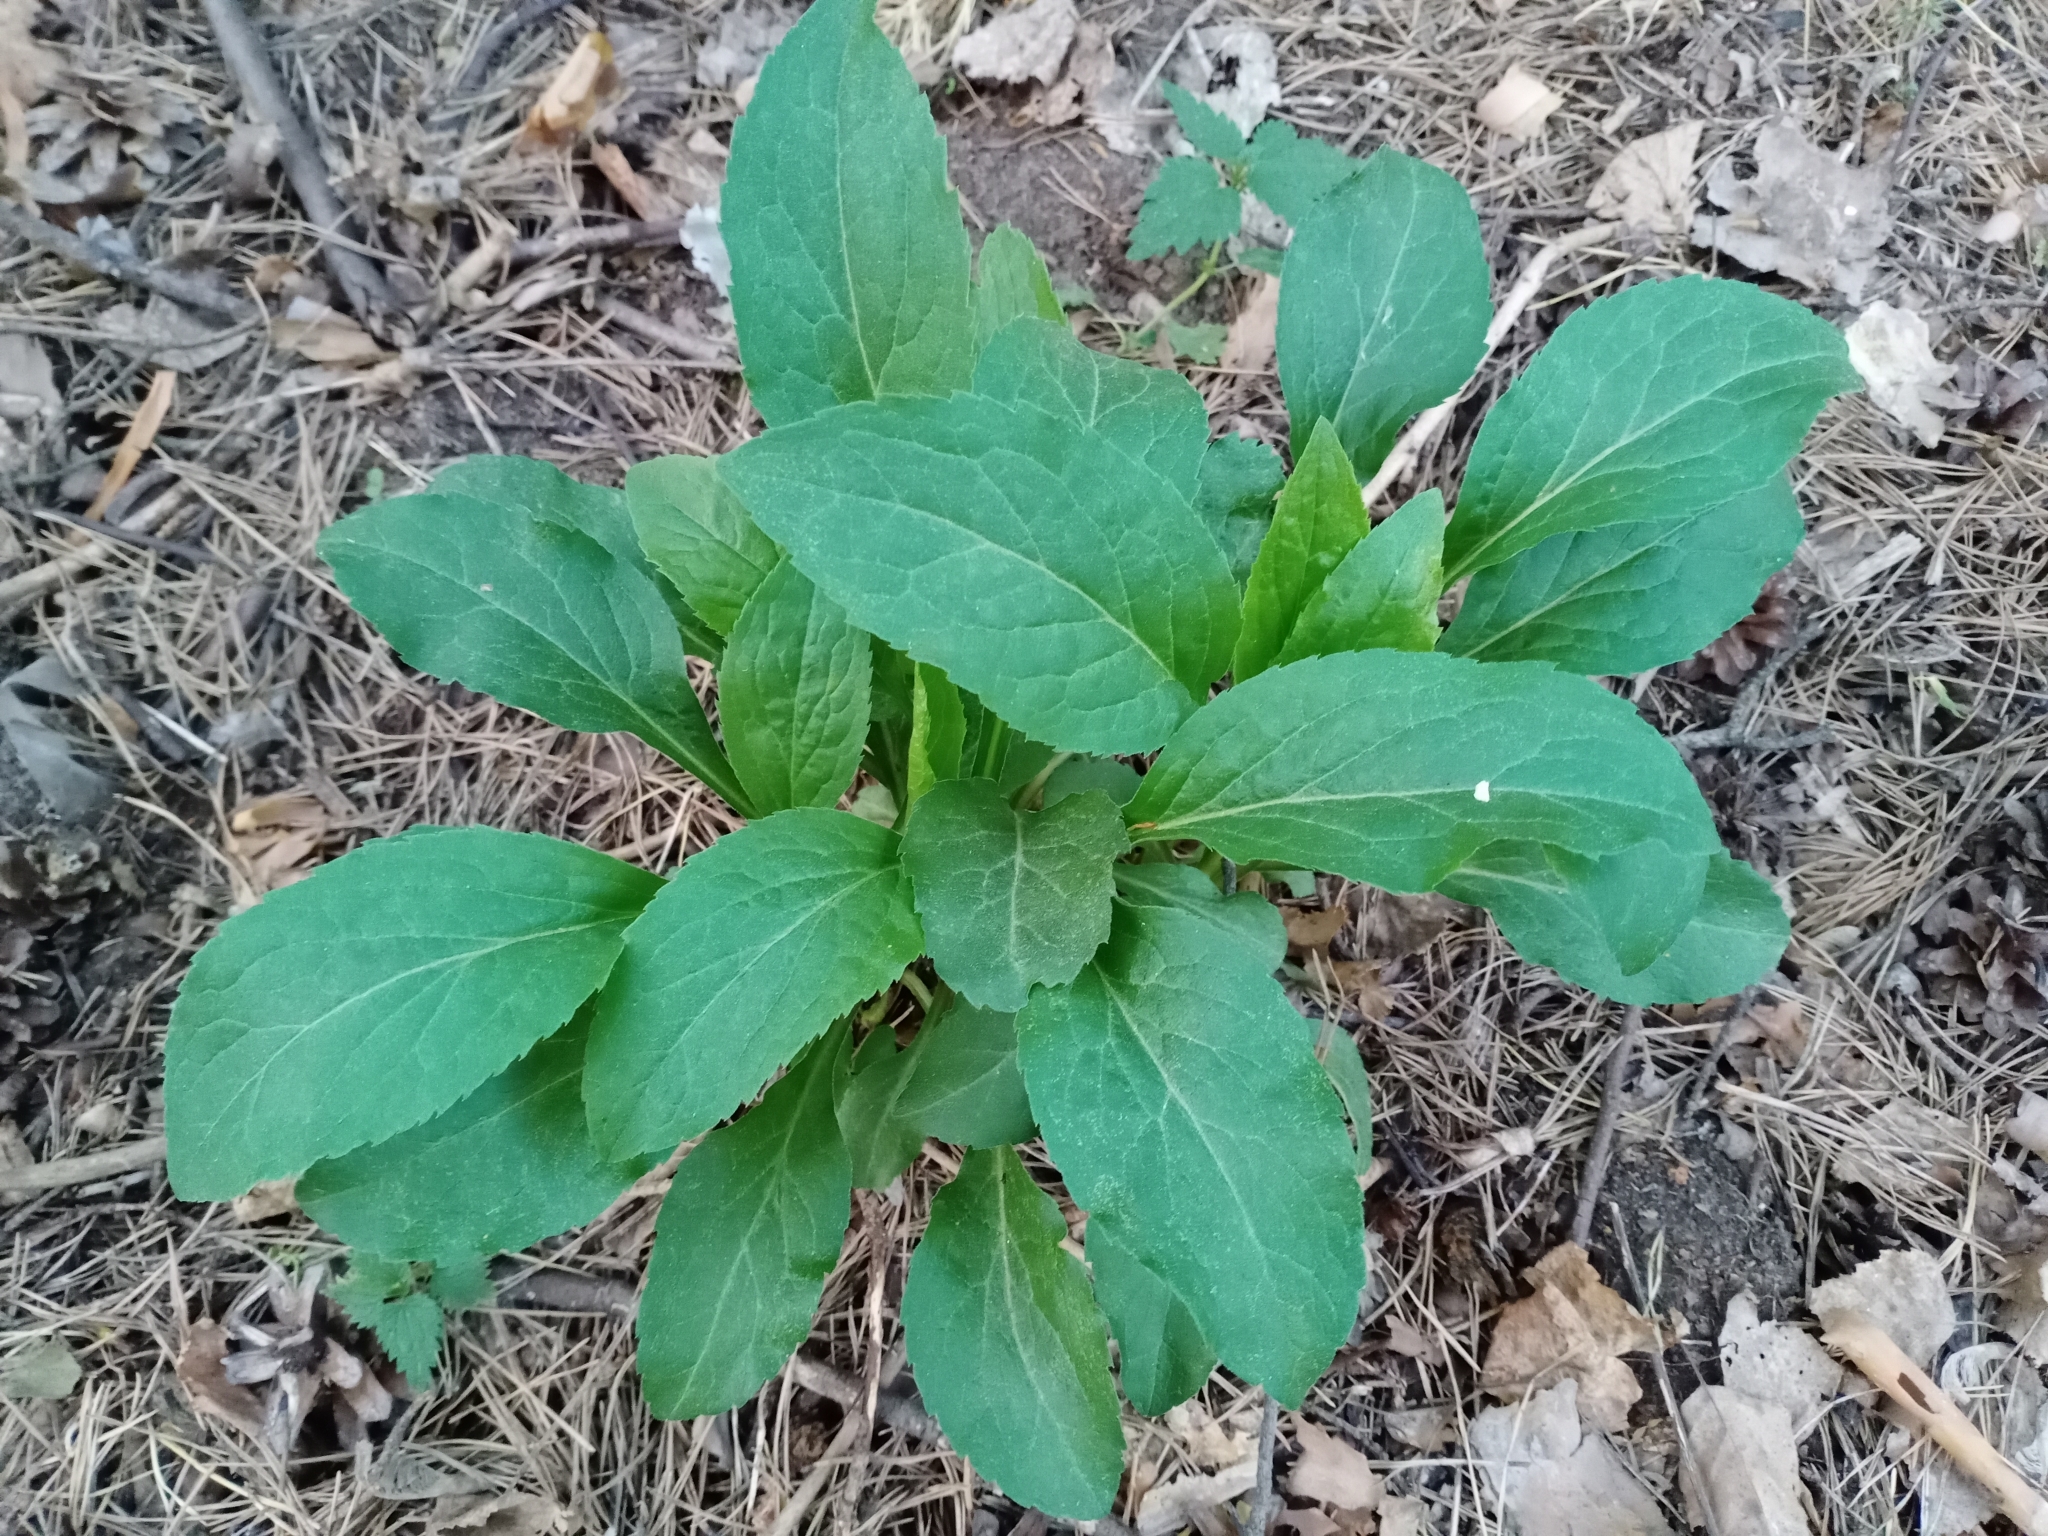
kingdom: Plantae
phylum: Tracheophyta
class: Magnoliopsida
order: Asterales
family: Asteraceae
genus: Solidago
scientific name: Solidago virgaurea
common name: Goldenrod
